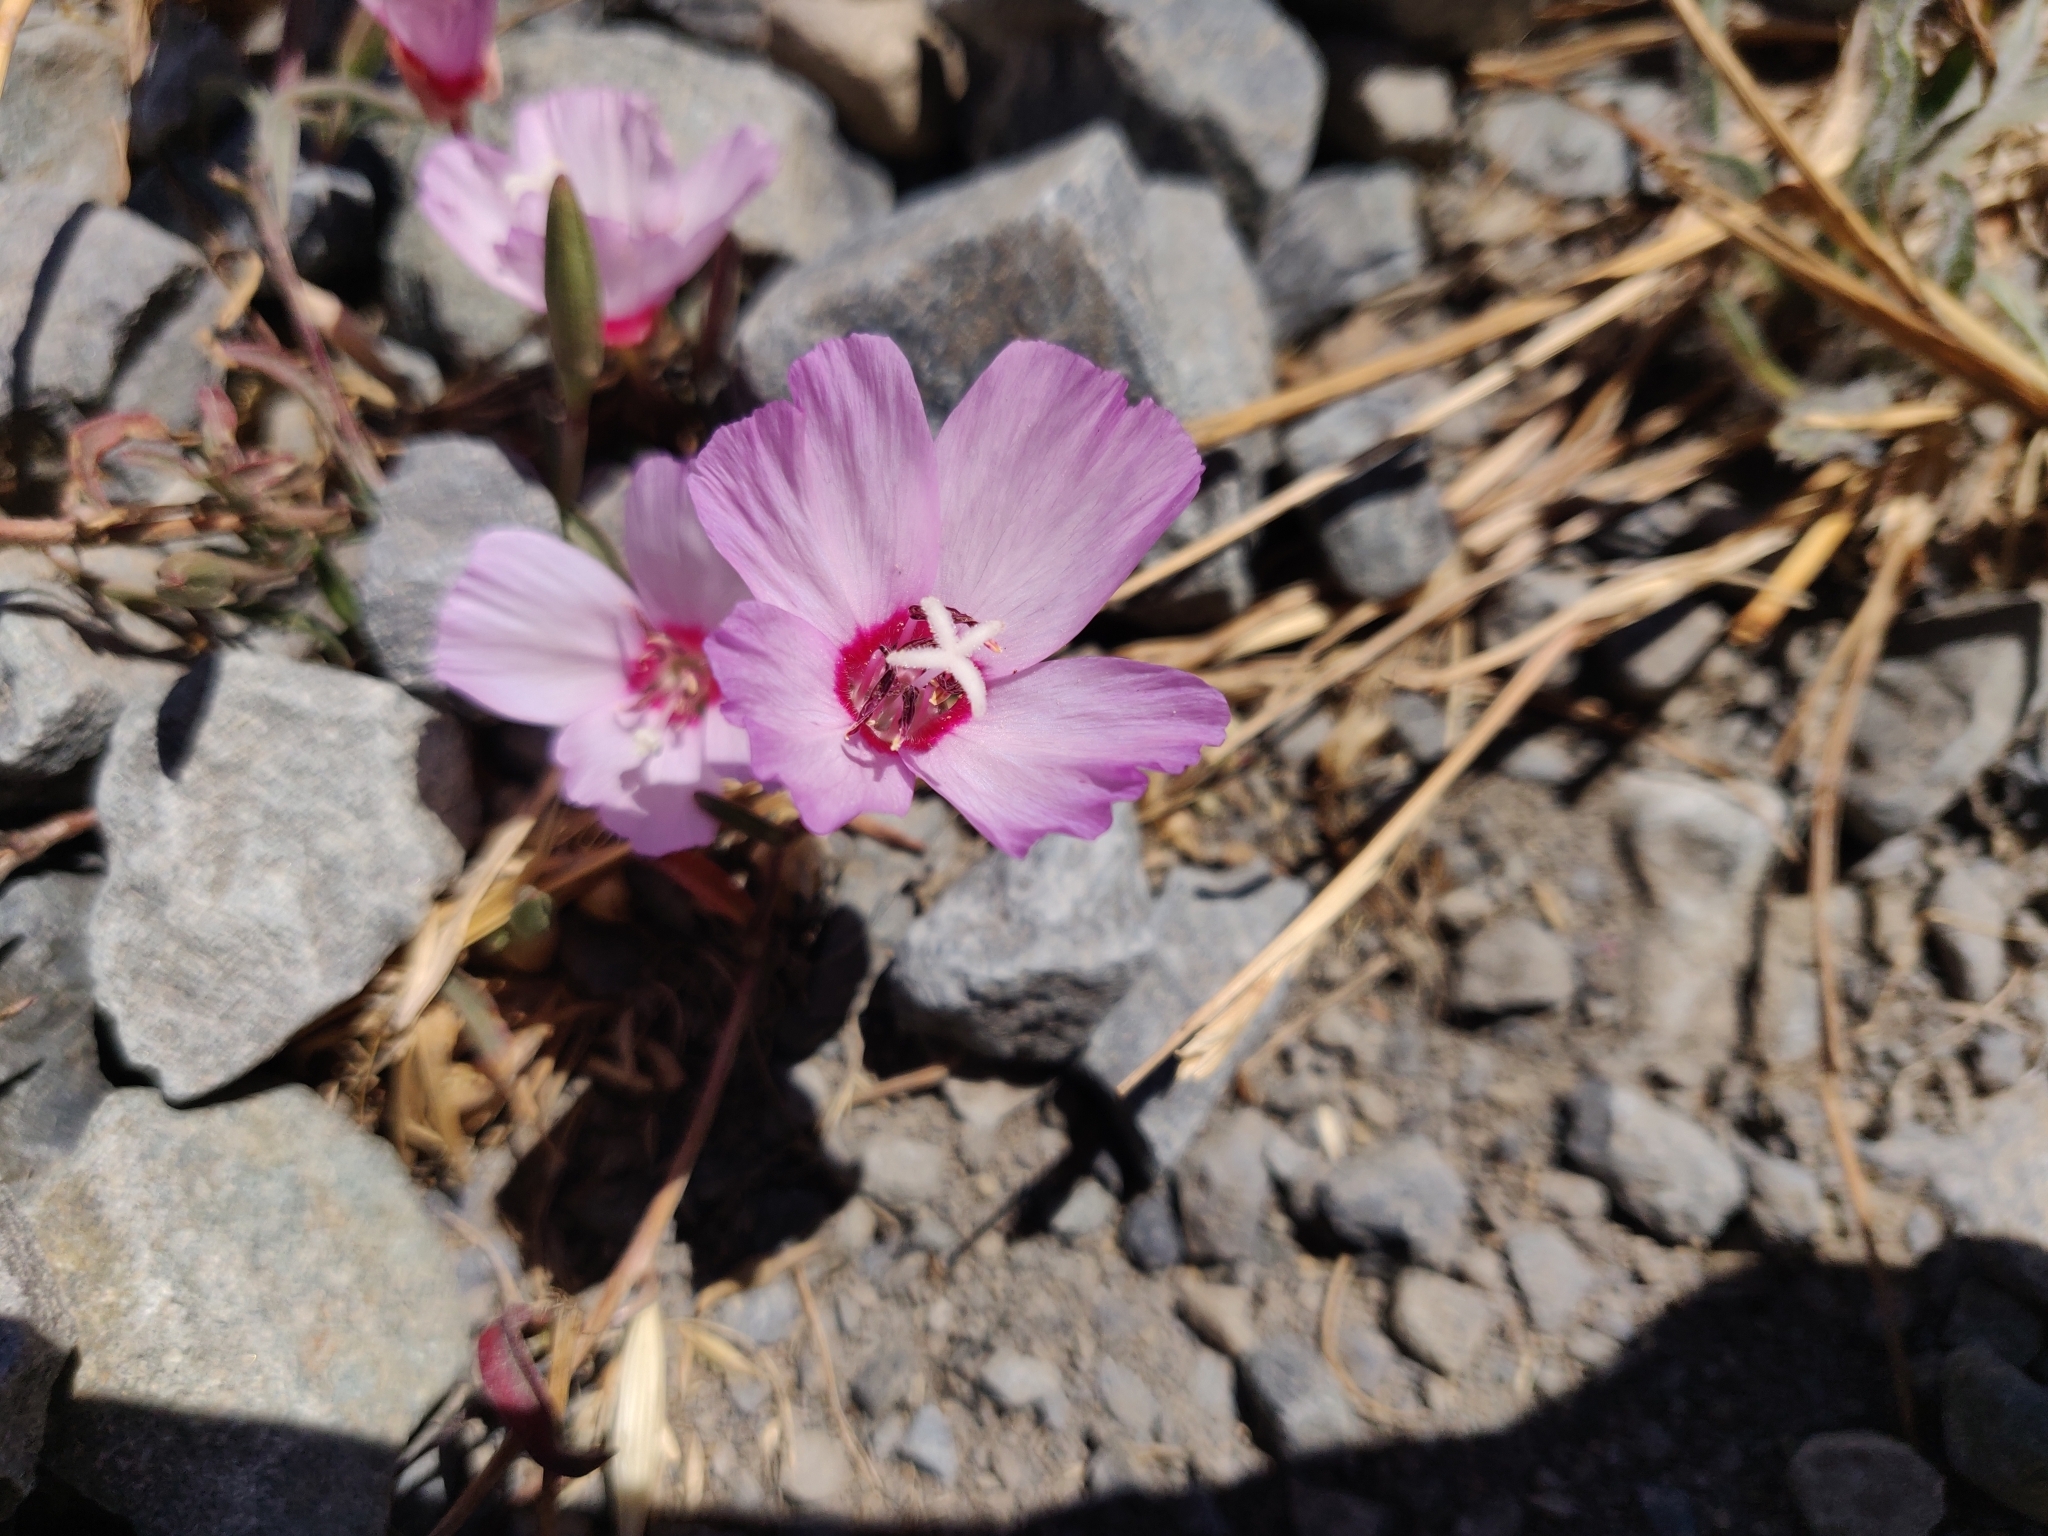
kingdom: Plantae
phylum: Tracheophyta
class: Magnoliopsida
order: Myrtales
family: Onagraceae
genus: Clarkia
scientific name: Clarkia rubicunda
